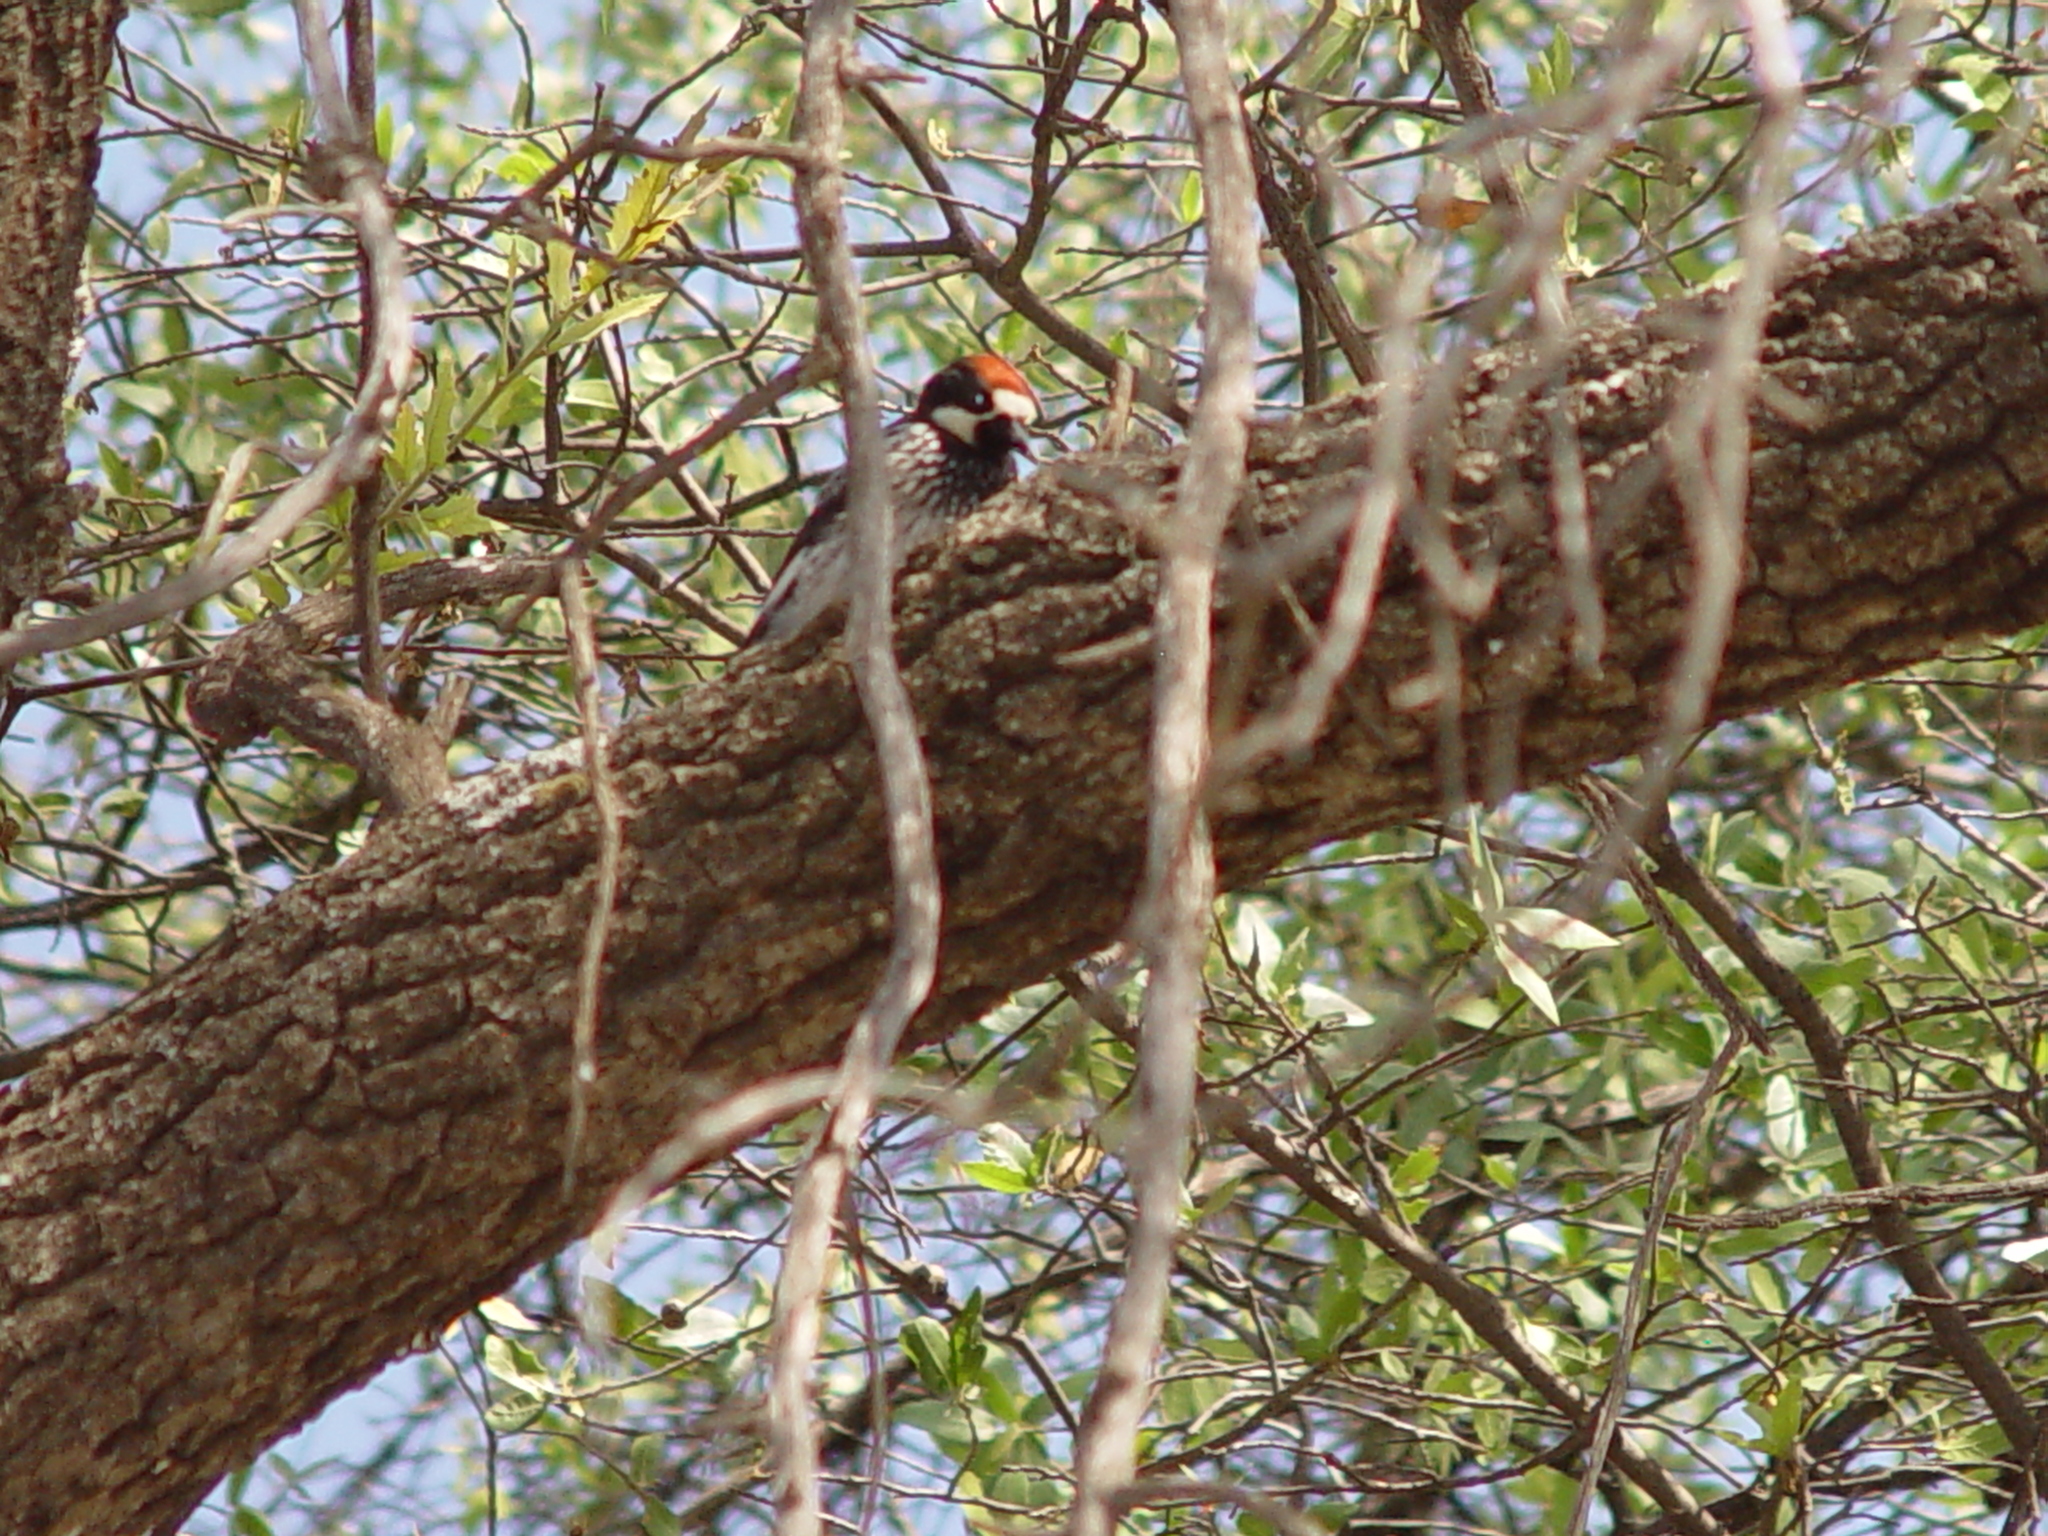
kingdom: Animalia
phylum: Chordata
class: Aves
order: Piciformes
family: Picidae
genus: Melanerpes
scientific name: Melanerpes formicivorus
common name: Acorn woodpecker
